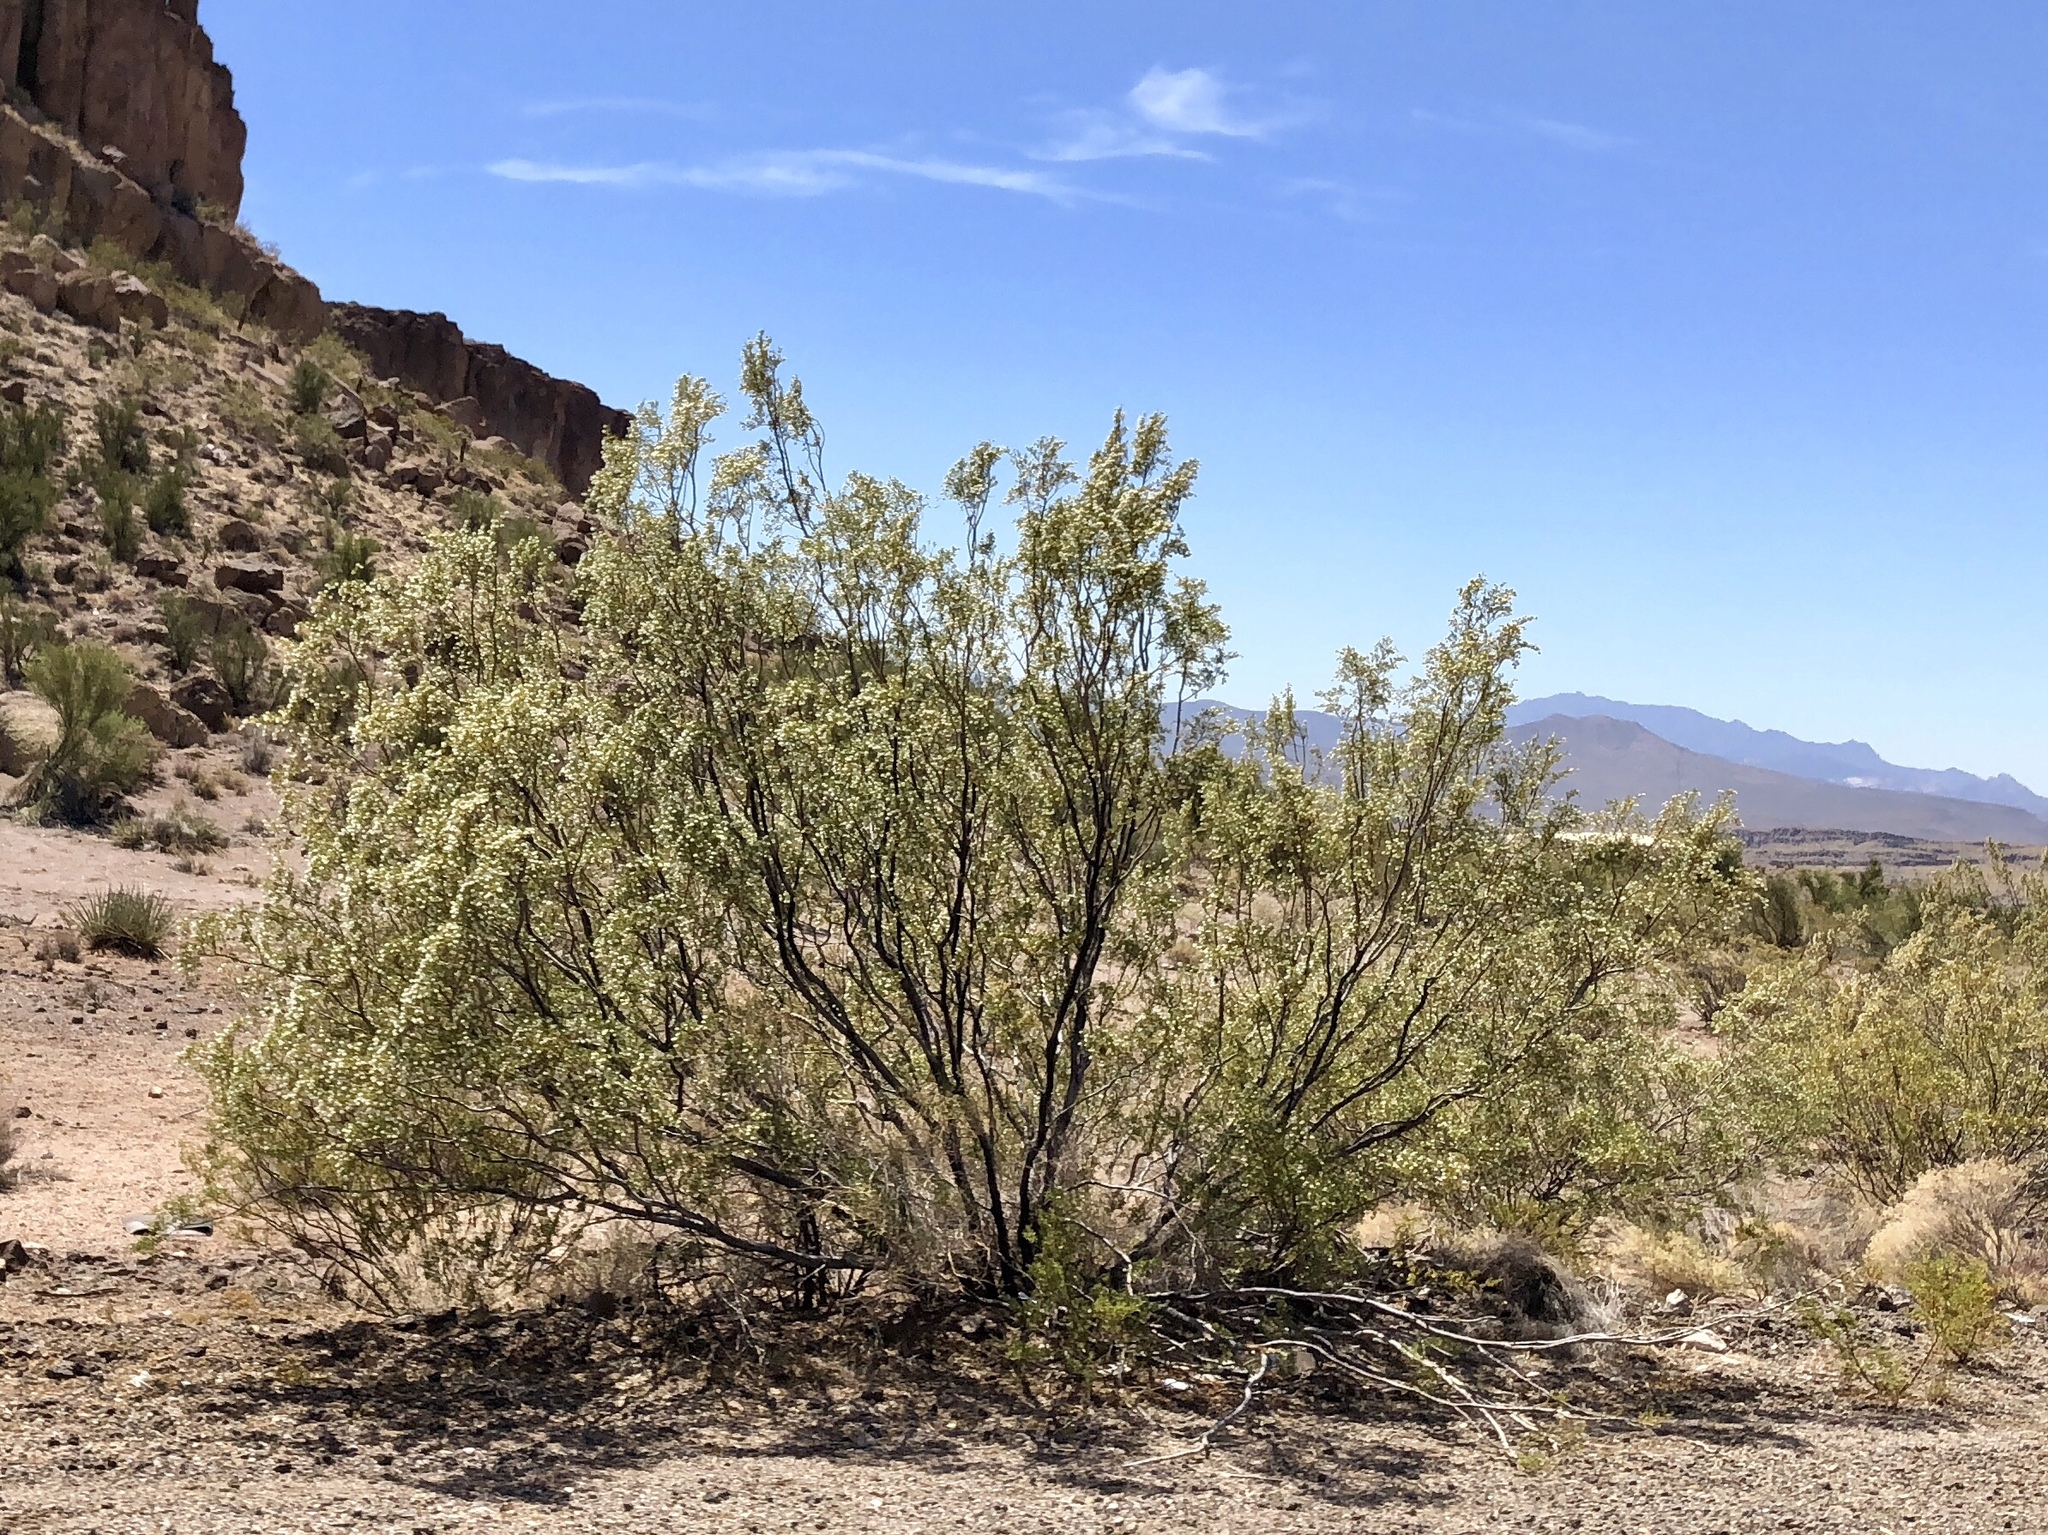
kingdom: Plantae
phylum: Tracheophyta
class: Magnoliopsida
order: Zygophyllales
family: Zygophyllaceae
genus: Larrea
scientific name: Larrea tridentata
